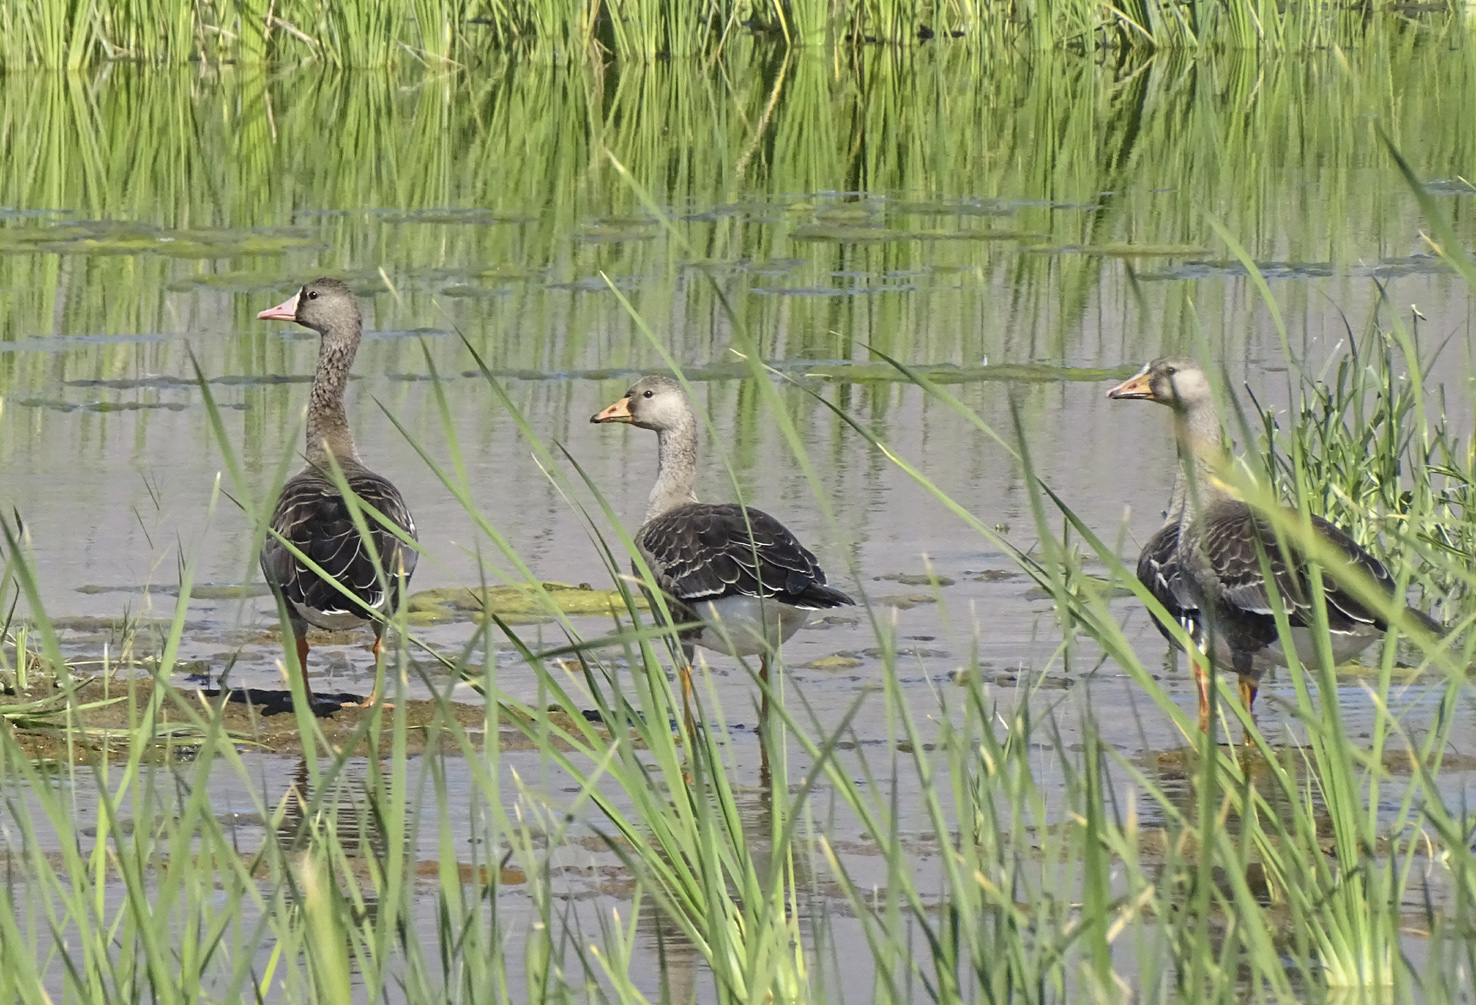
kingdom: Animalia
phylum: Chordata
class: Aves
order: Anseriformes
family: Anatidae
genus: Anser
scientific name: Anser albifrons
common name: Greater white-fronted goose
